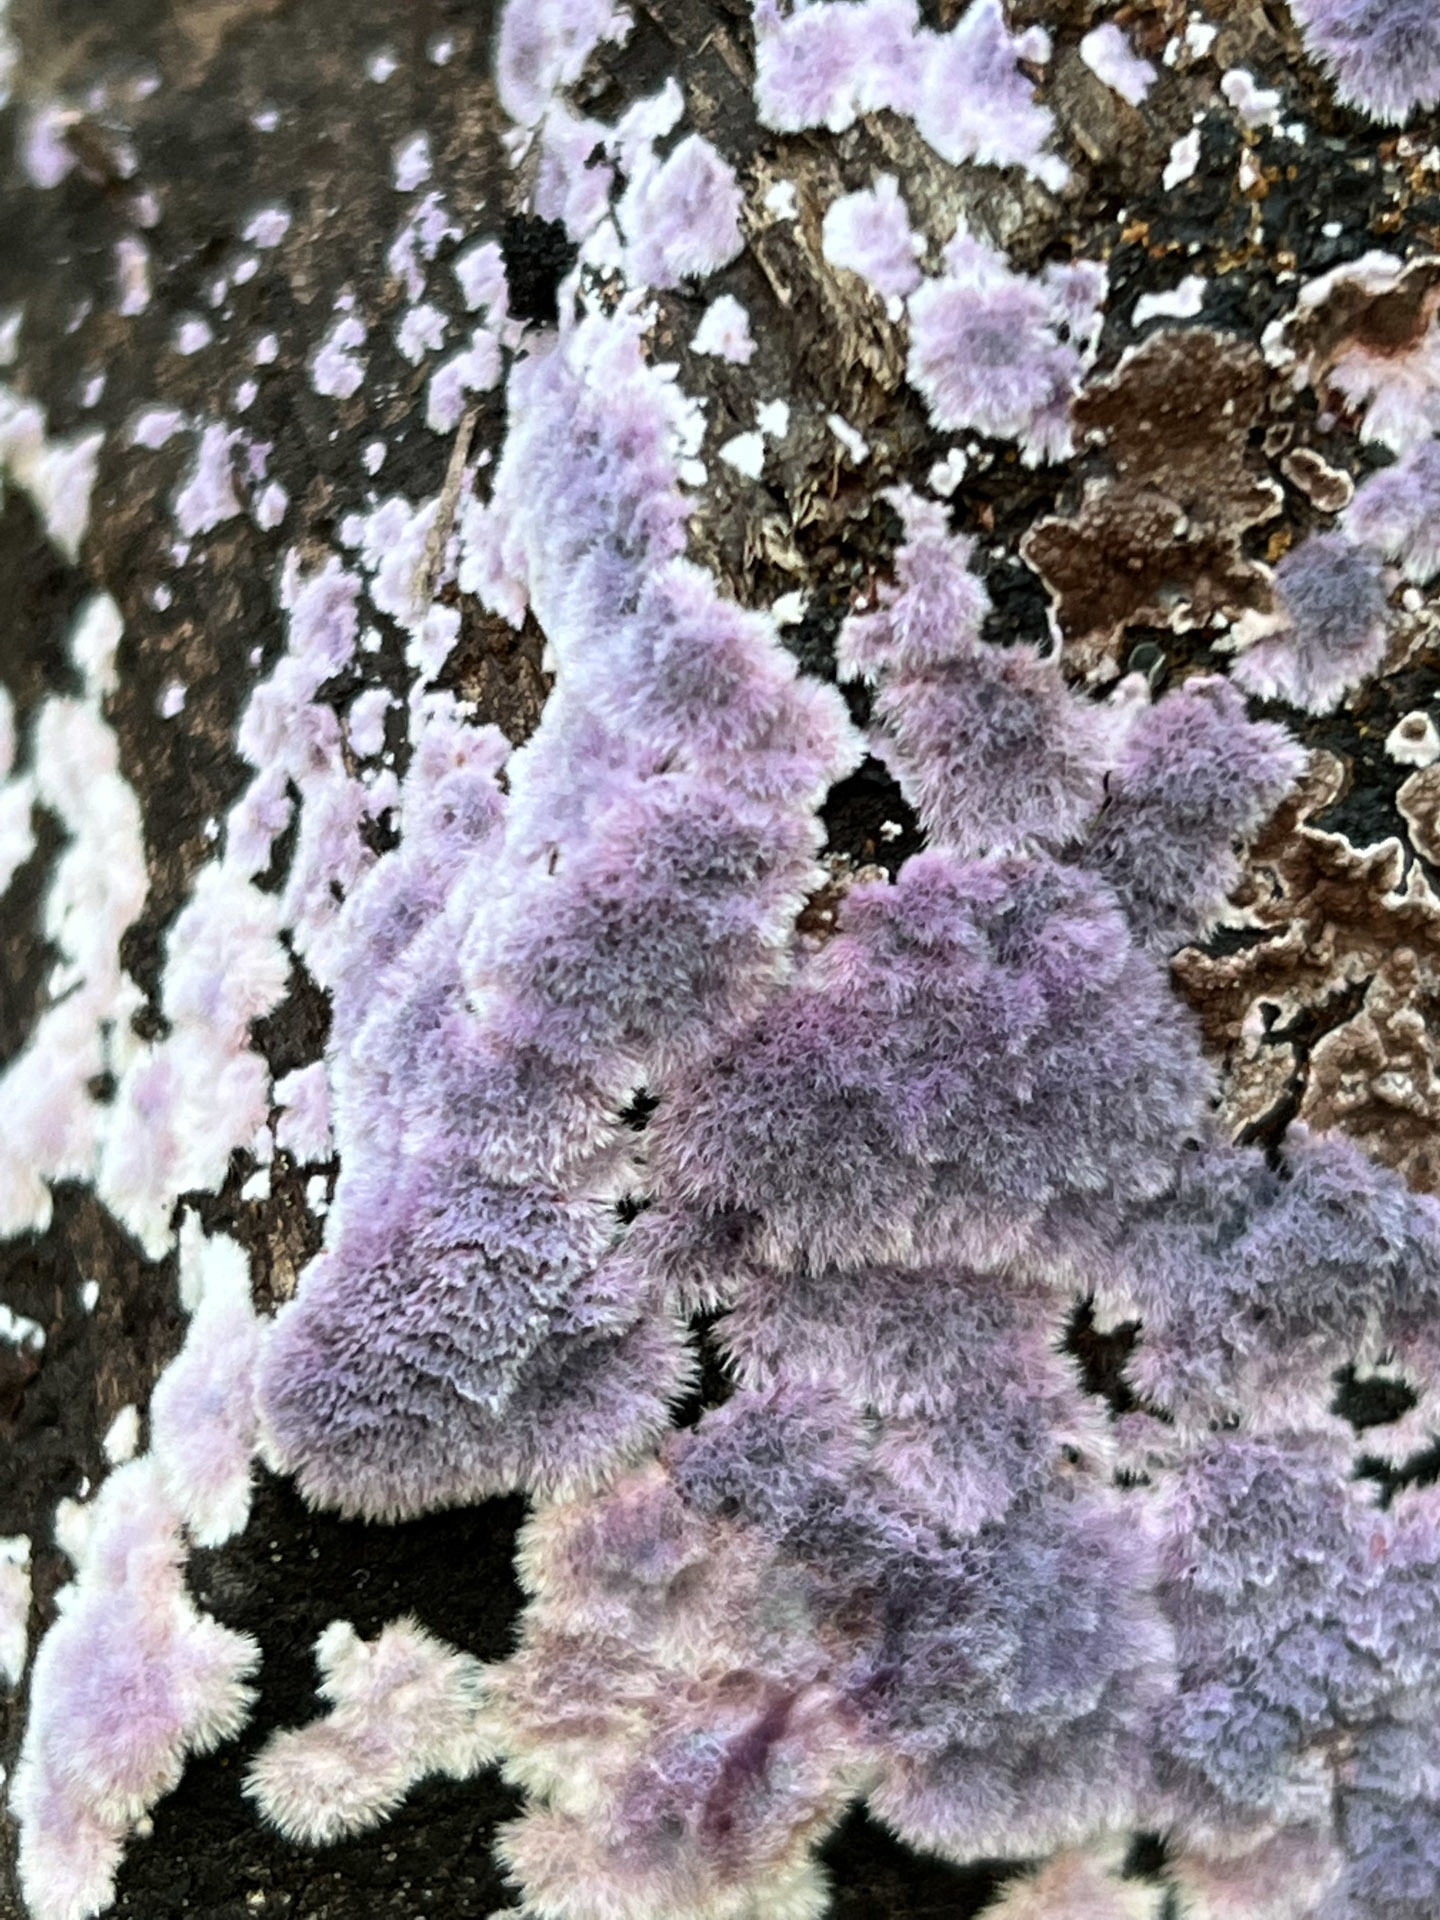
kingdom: Fungi
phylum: Basidiomycota
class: Agaricomycetes
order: Corticiales
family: Punctulariaceae
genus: Punctularia
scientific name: Punctularia atropurpurascens
